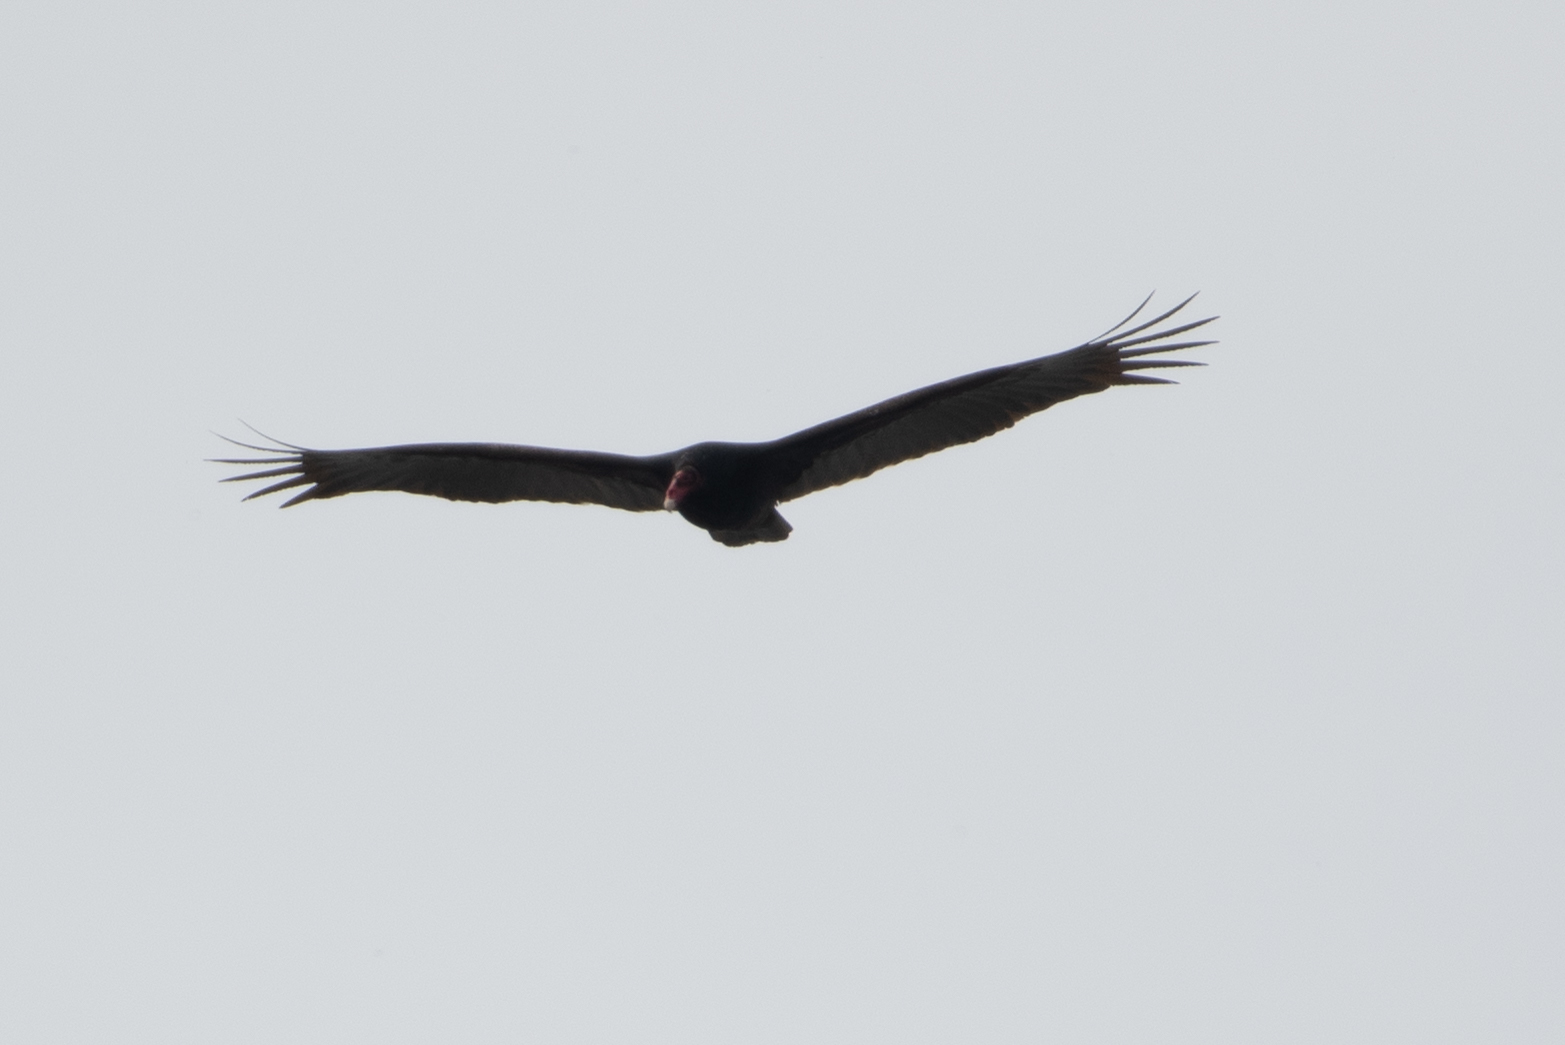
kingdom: Animalia
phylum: Chordata
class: Aves
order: Accipitriformes
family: Cathartidae
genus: Cathartes
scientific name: Cathartes aura
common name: Turkey vulture
